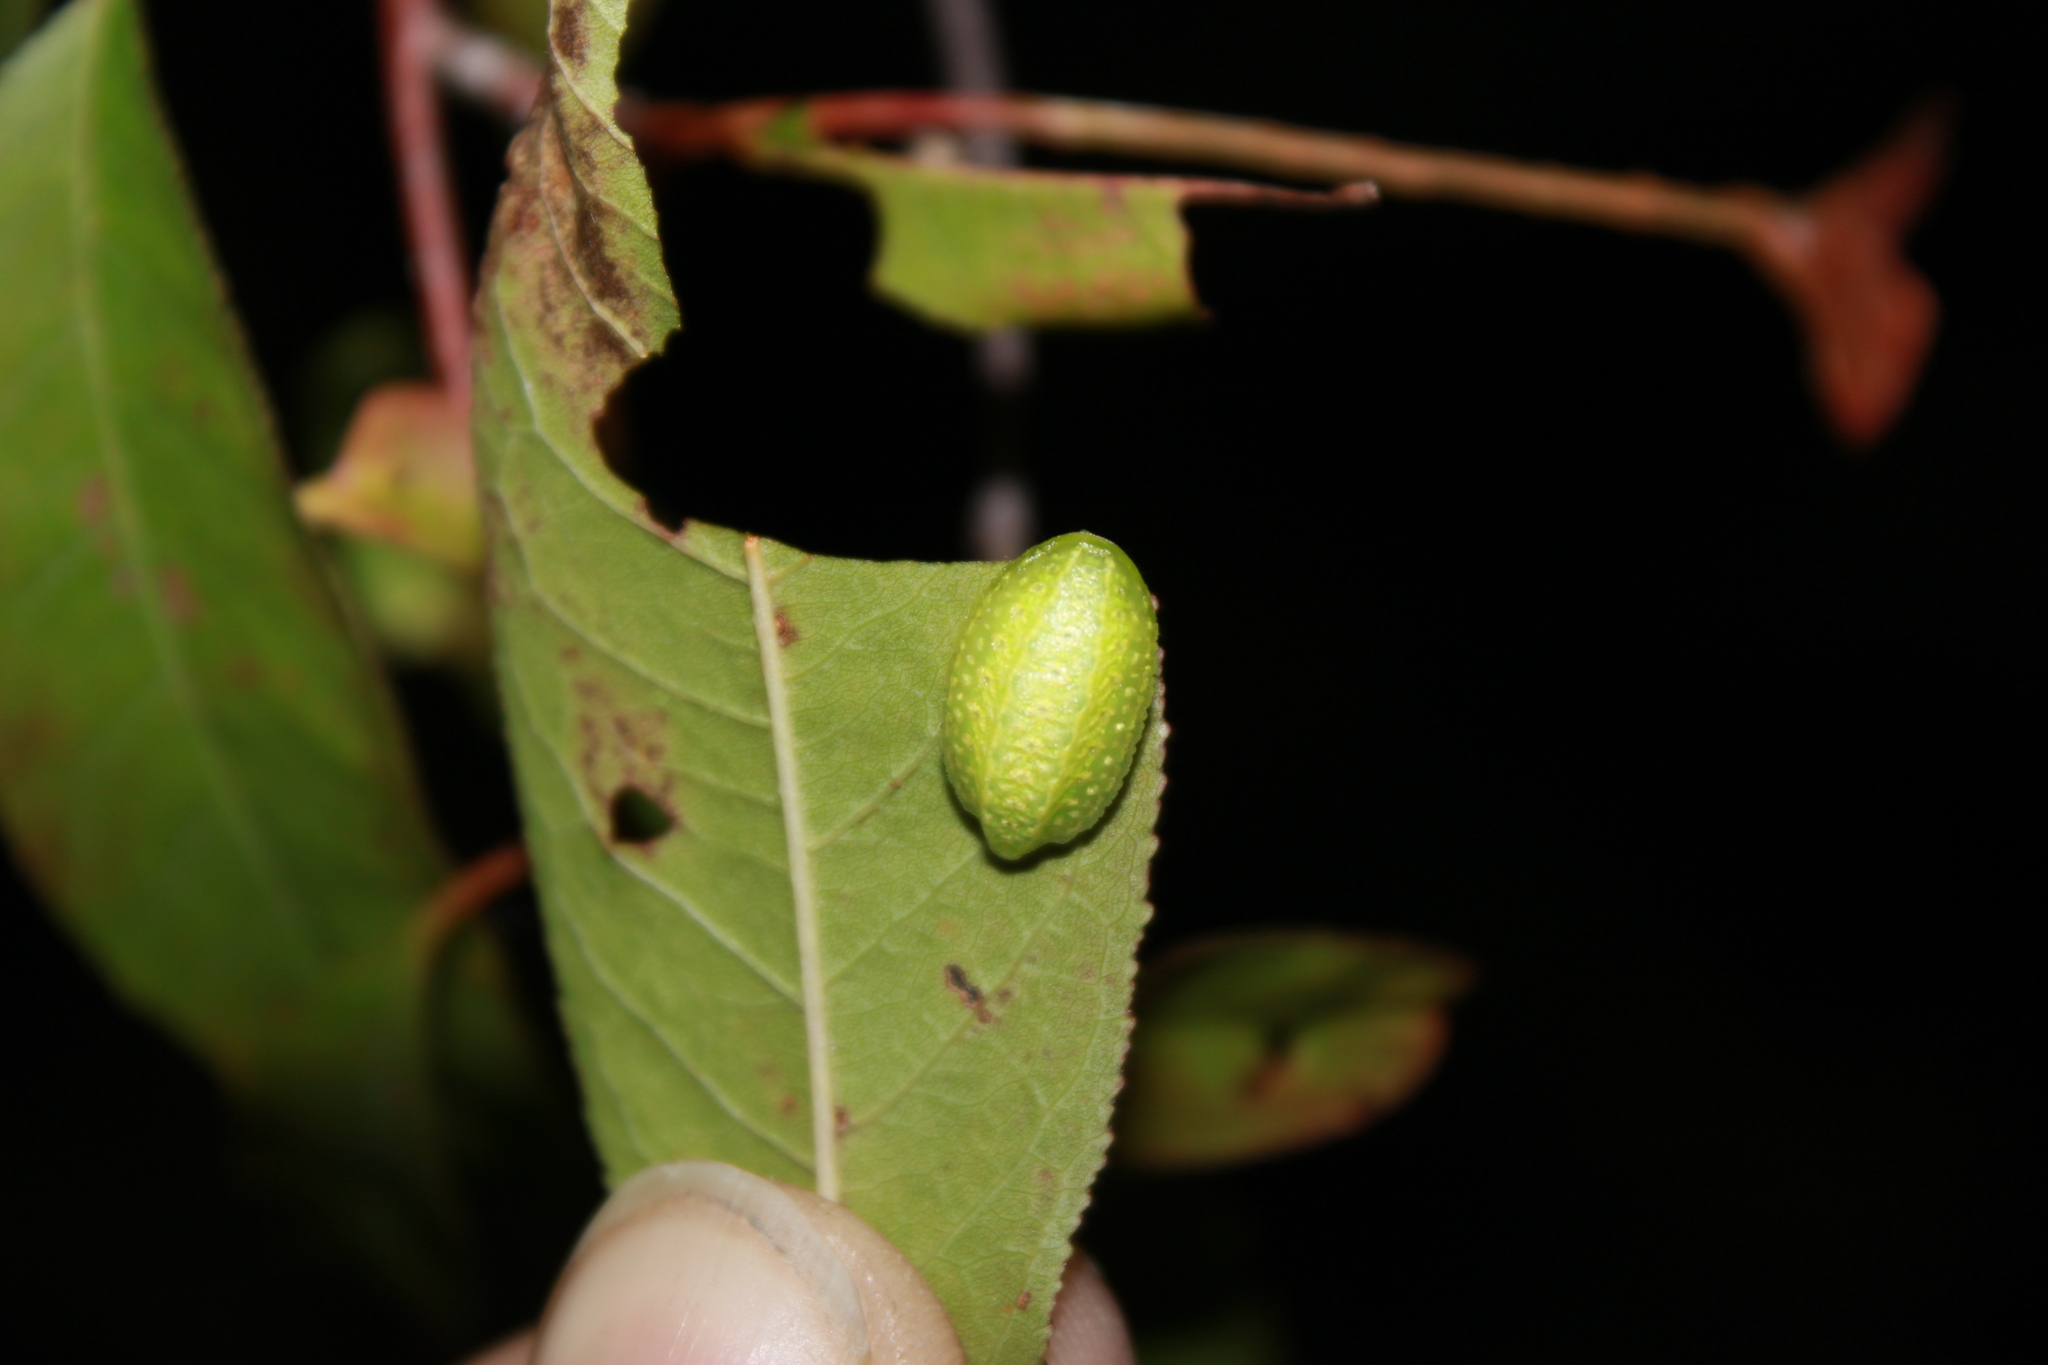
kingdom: Animalia
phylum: Arthropoda
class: Insecta
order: Lepidoptera
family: Limacodidae
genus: Lithacodes
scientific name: Lithacodes fasciola
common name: Yellow-shouldered slug moth
